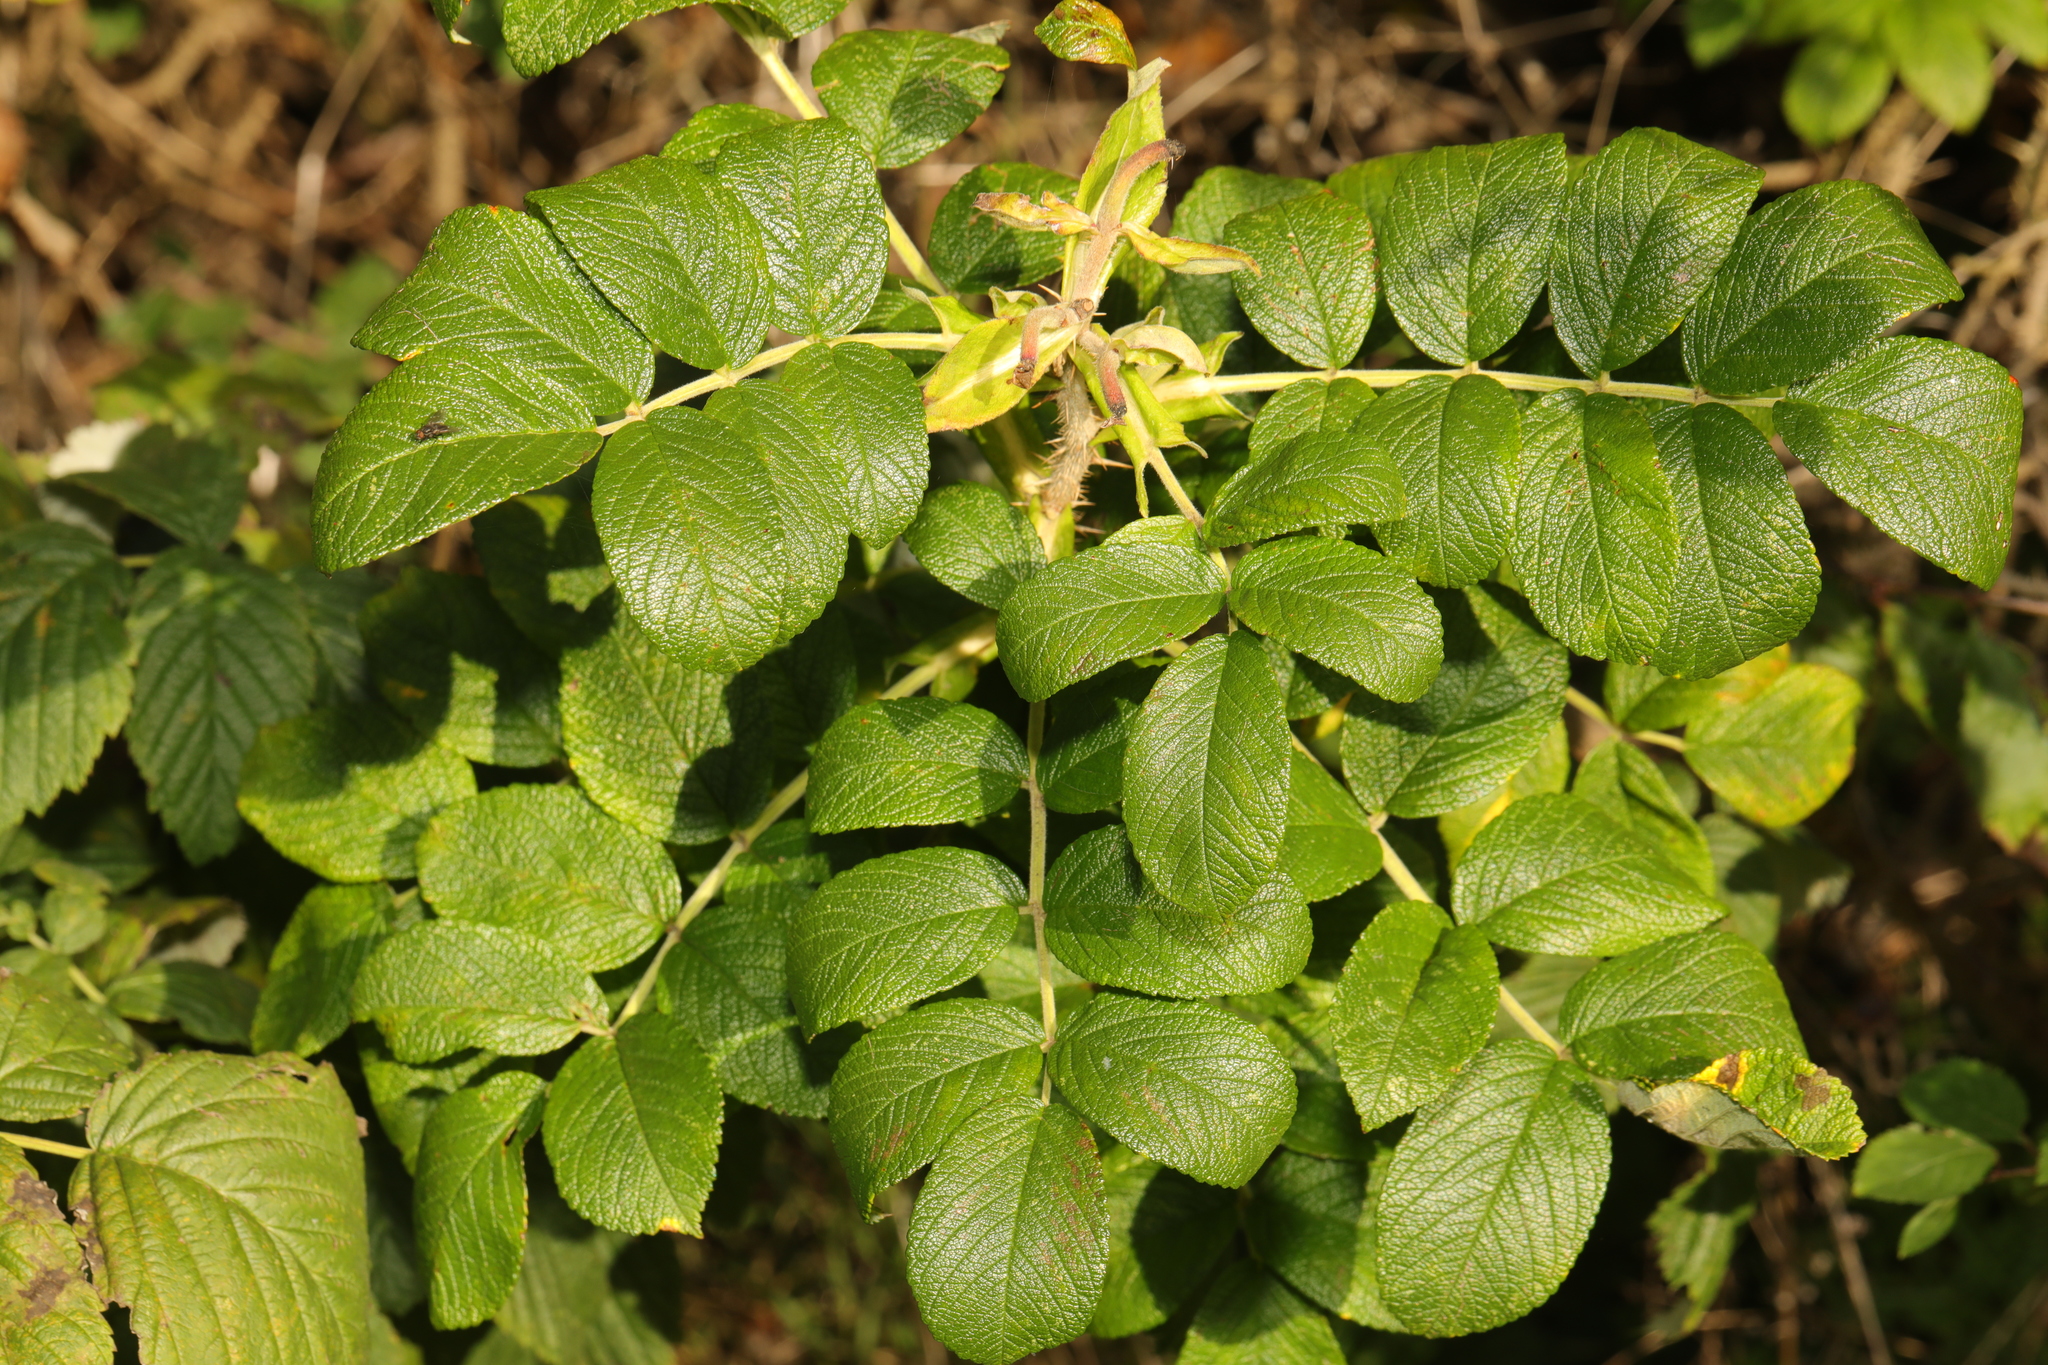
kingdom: Plantae
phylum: Tracheophyta
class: Magnoliopsida
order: Rosales
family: Rosaceae
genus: Rosa
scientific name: Rosa rugosa
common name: Japanese rose
